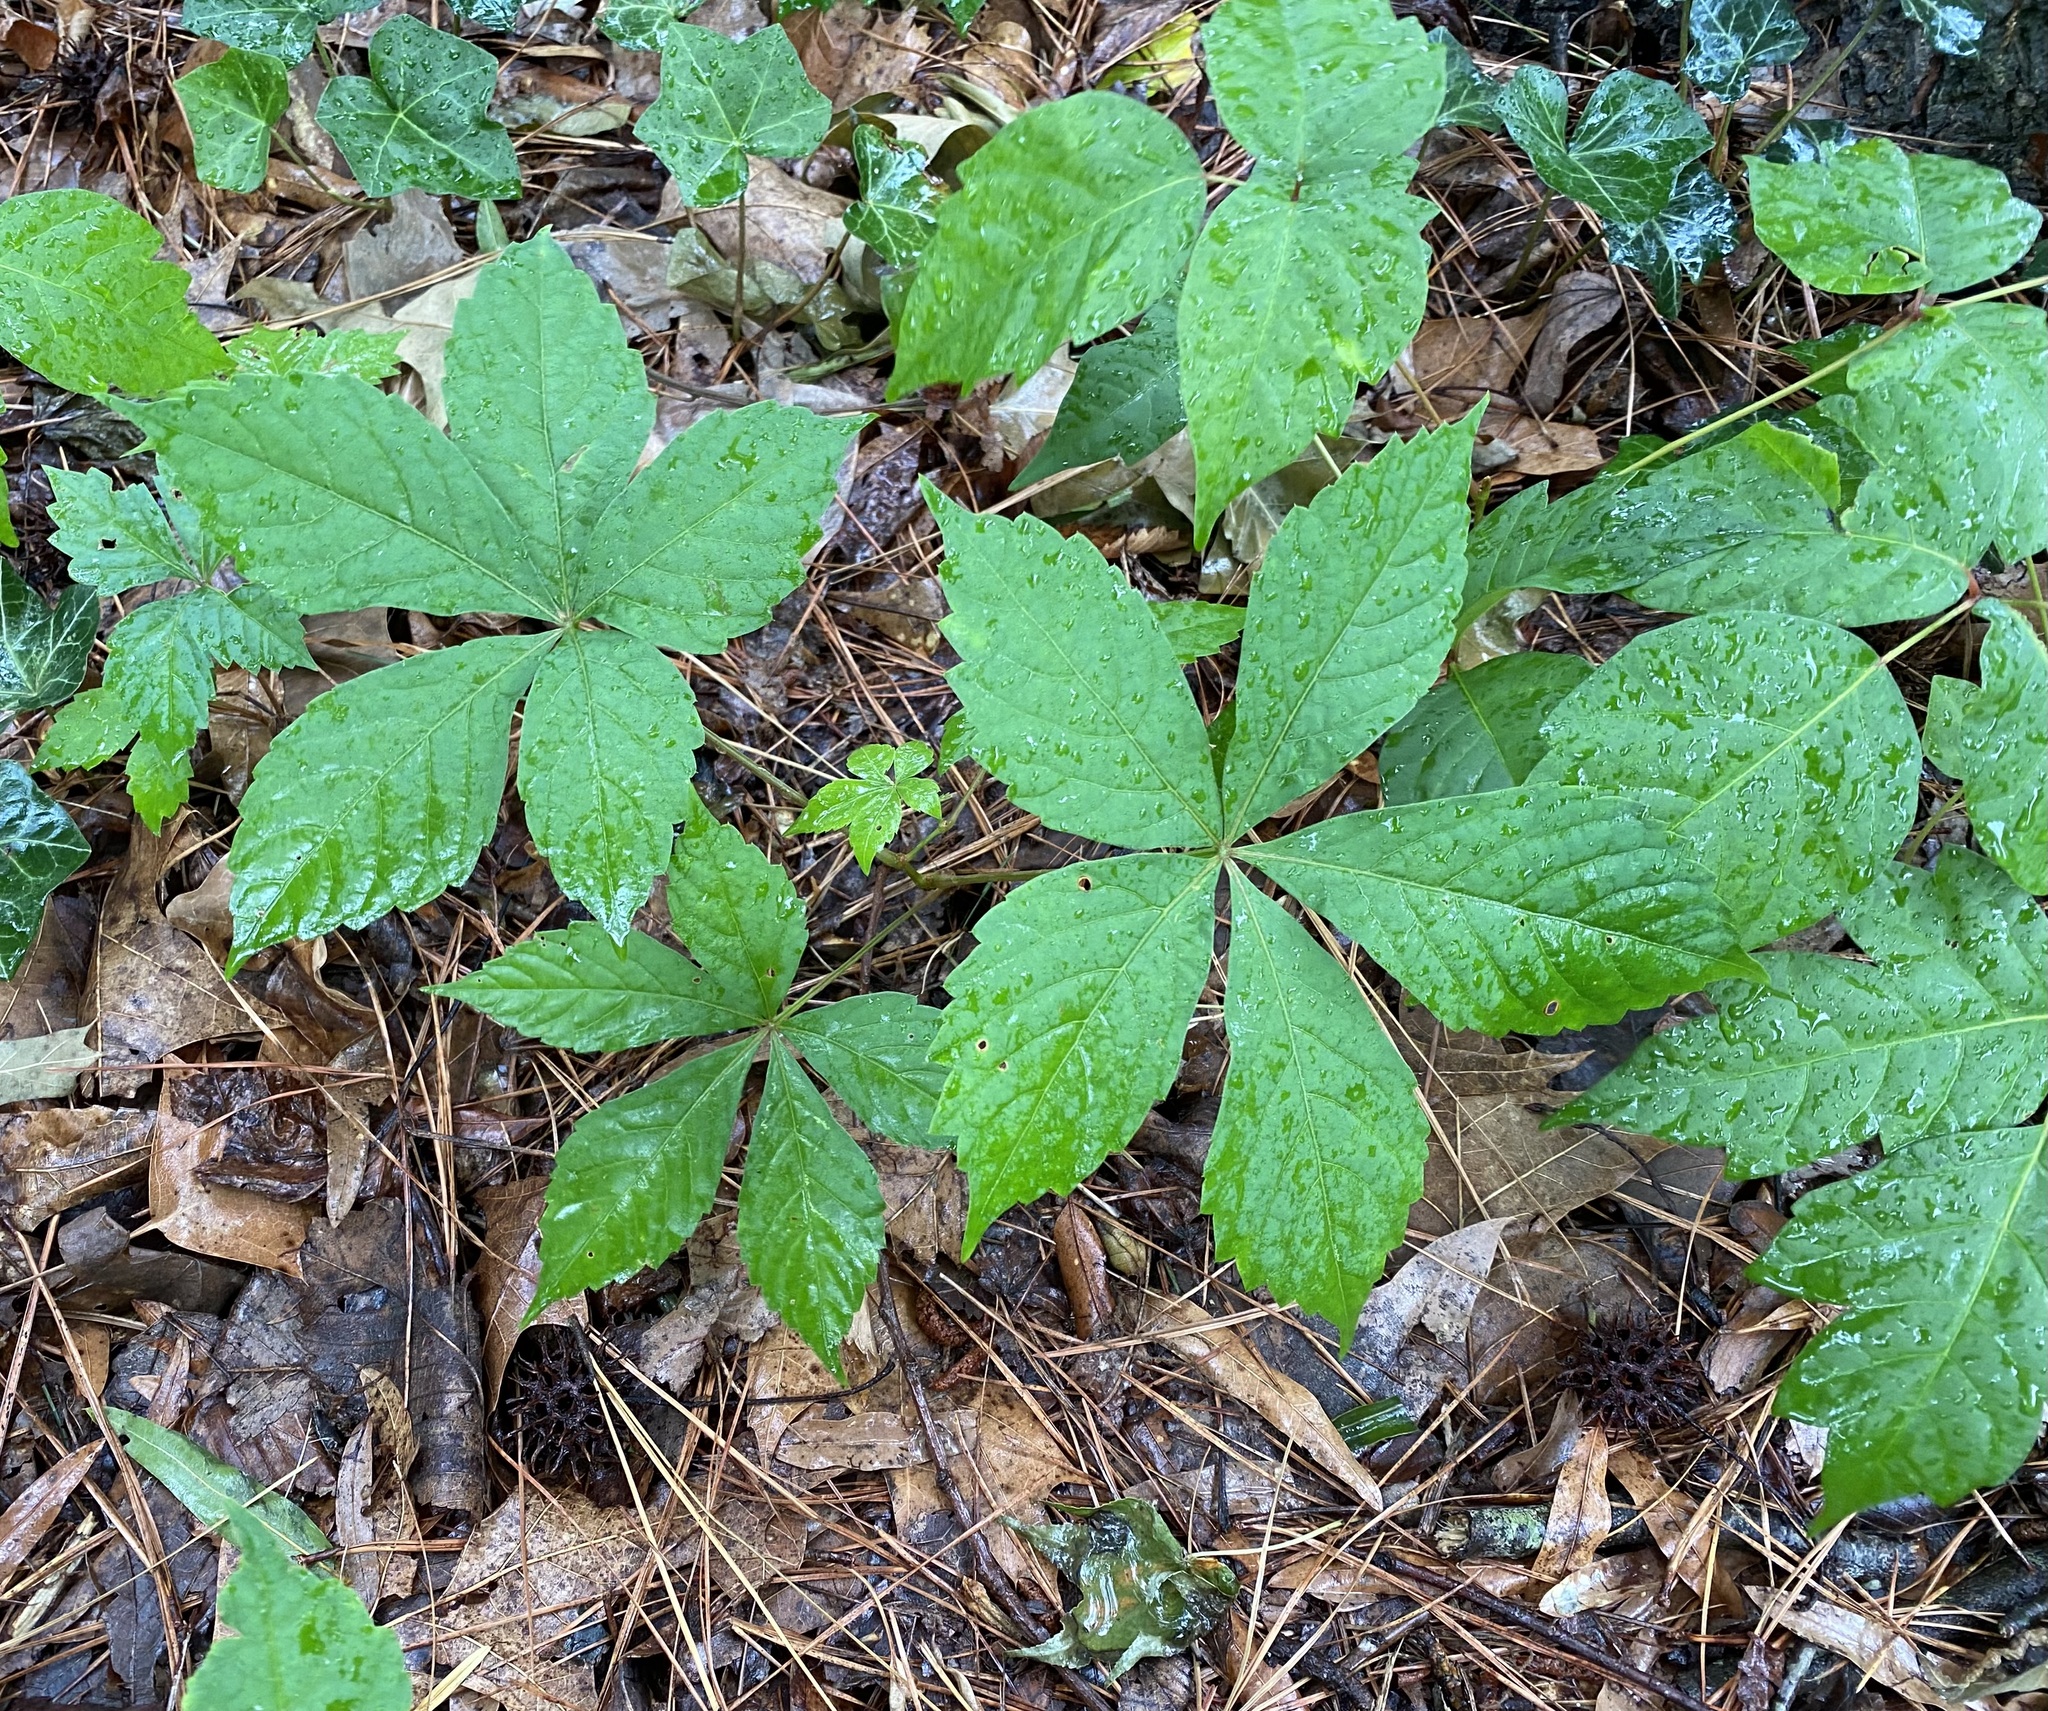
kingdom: Plantae
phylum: Tracheophyta
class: Magnoliopsida
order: Vitales
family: Vitaceae
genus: Parthenocissus
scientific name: Parthenocissus quinquefolia
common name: Virginia-creeper
